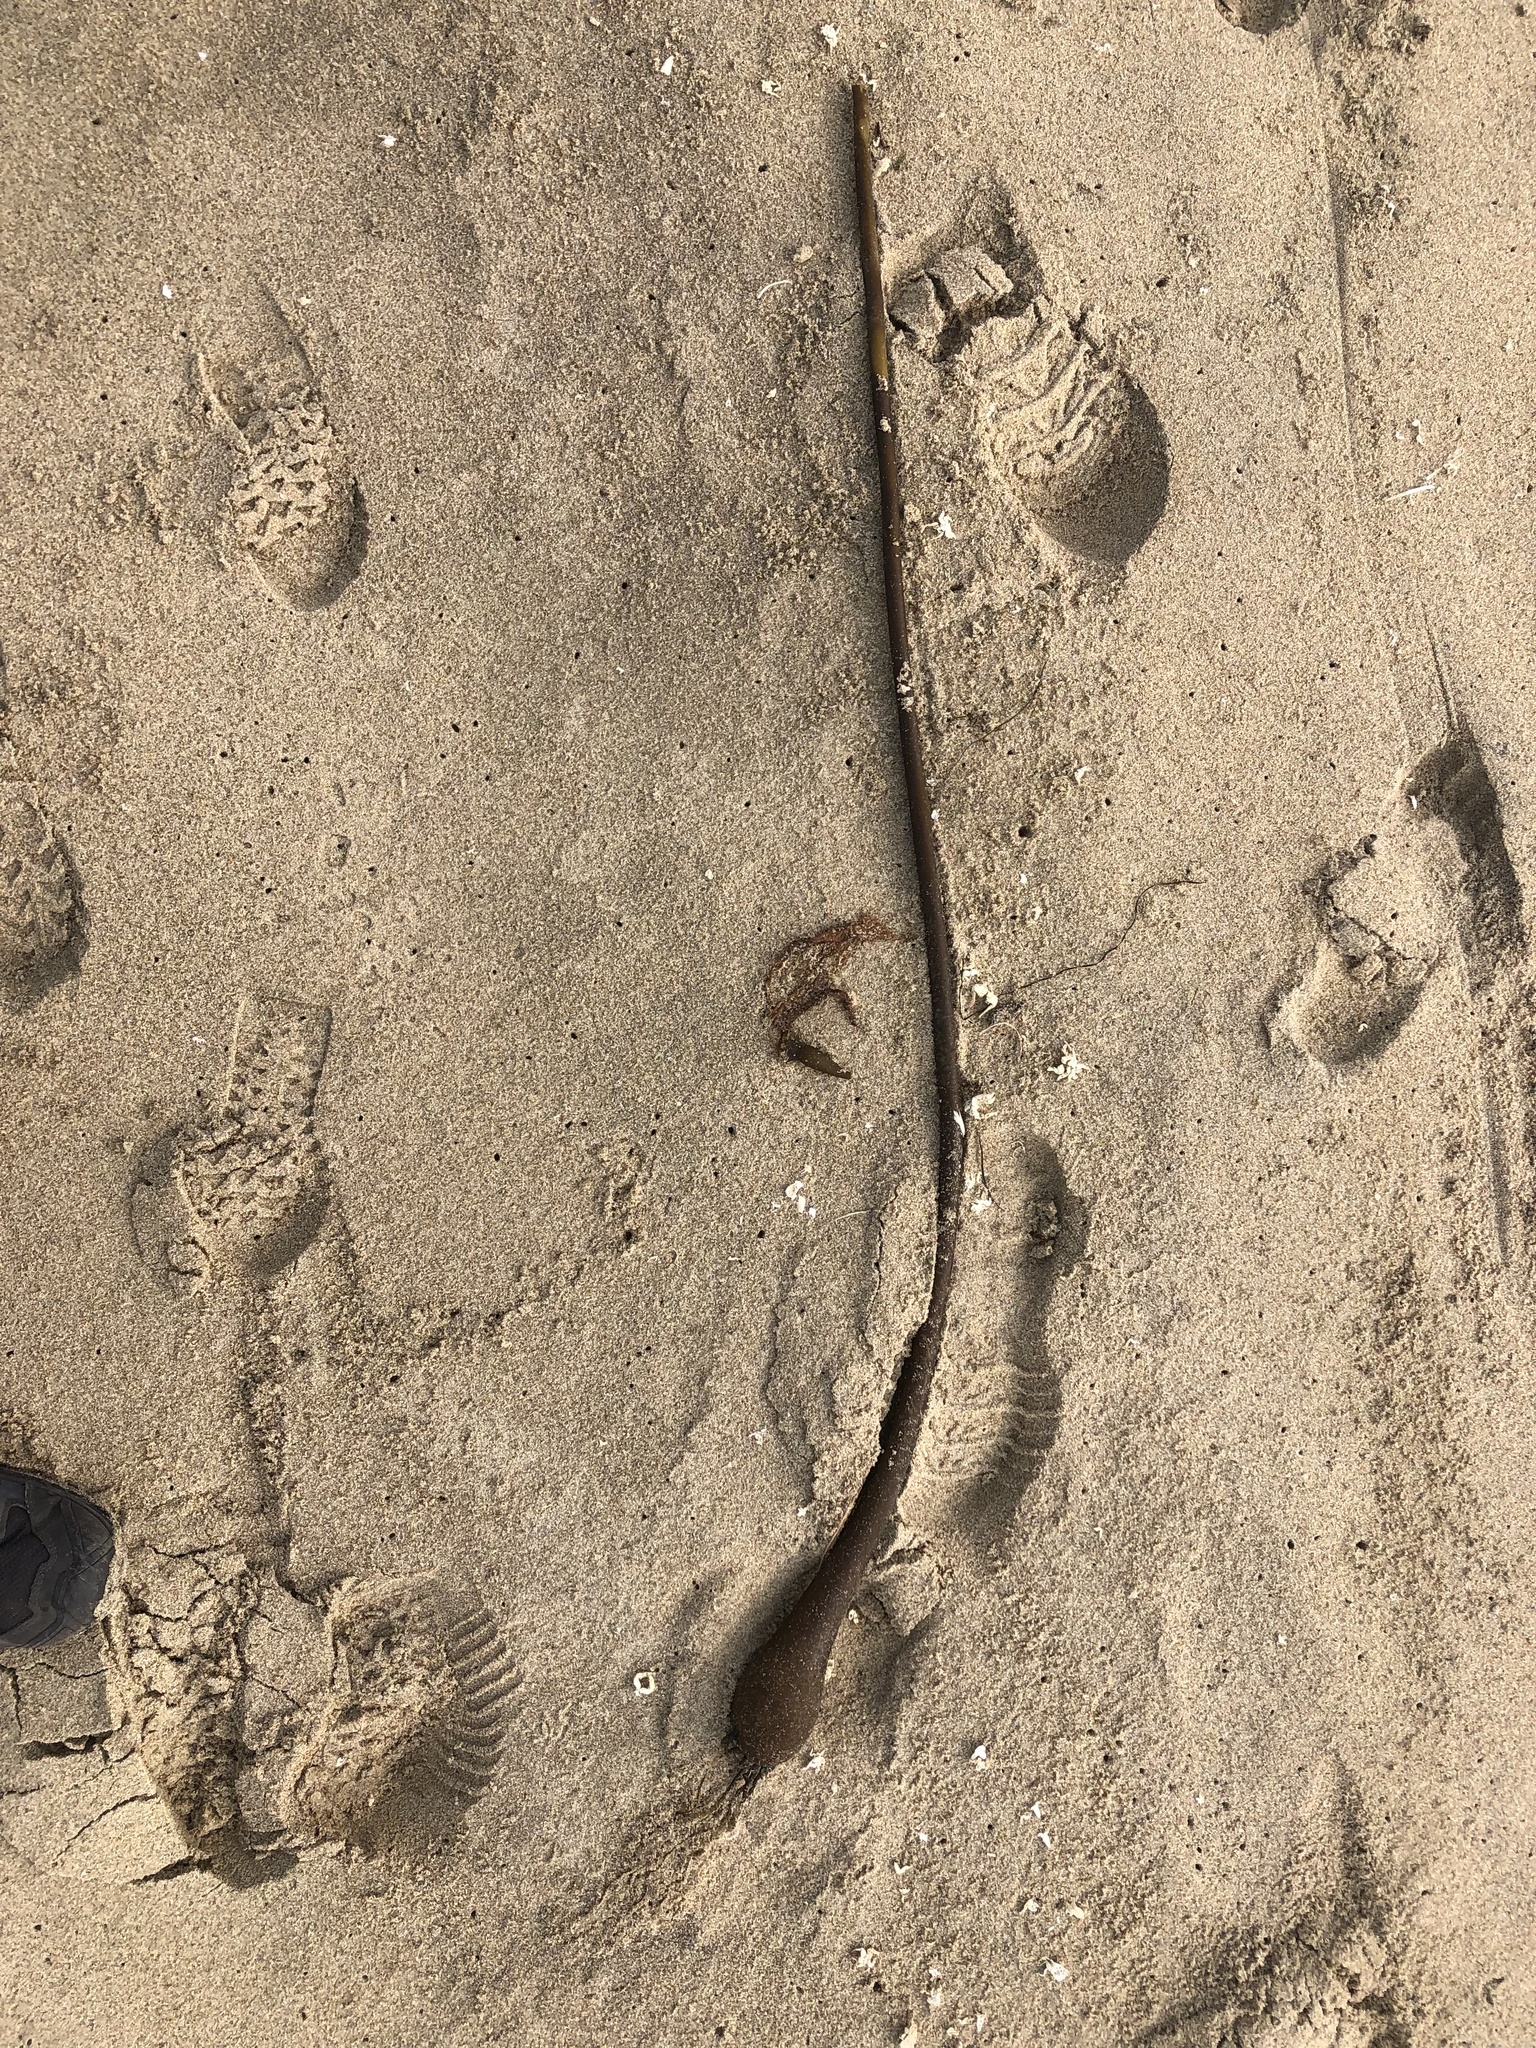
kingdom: Chromista
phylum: Ochrophyta
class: Phaeophyceae
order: Laminariales
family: Laminariaceae
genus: Nereocystis
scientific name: Nereocystis luetkeana
